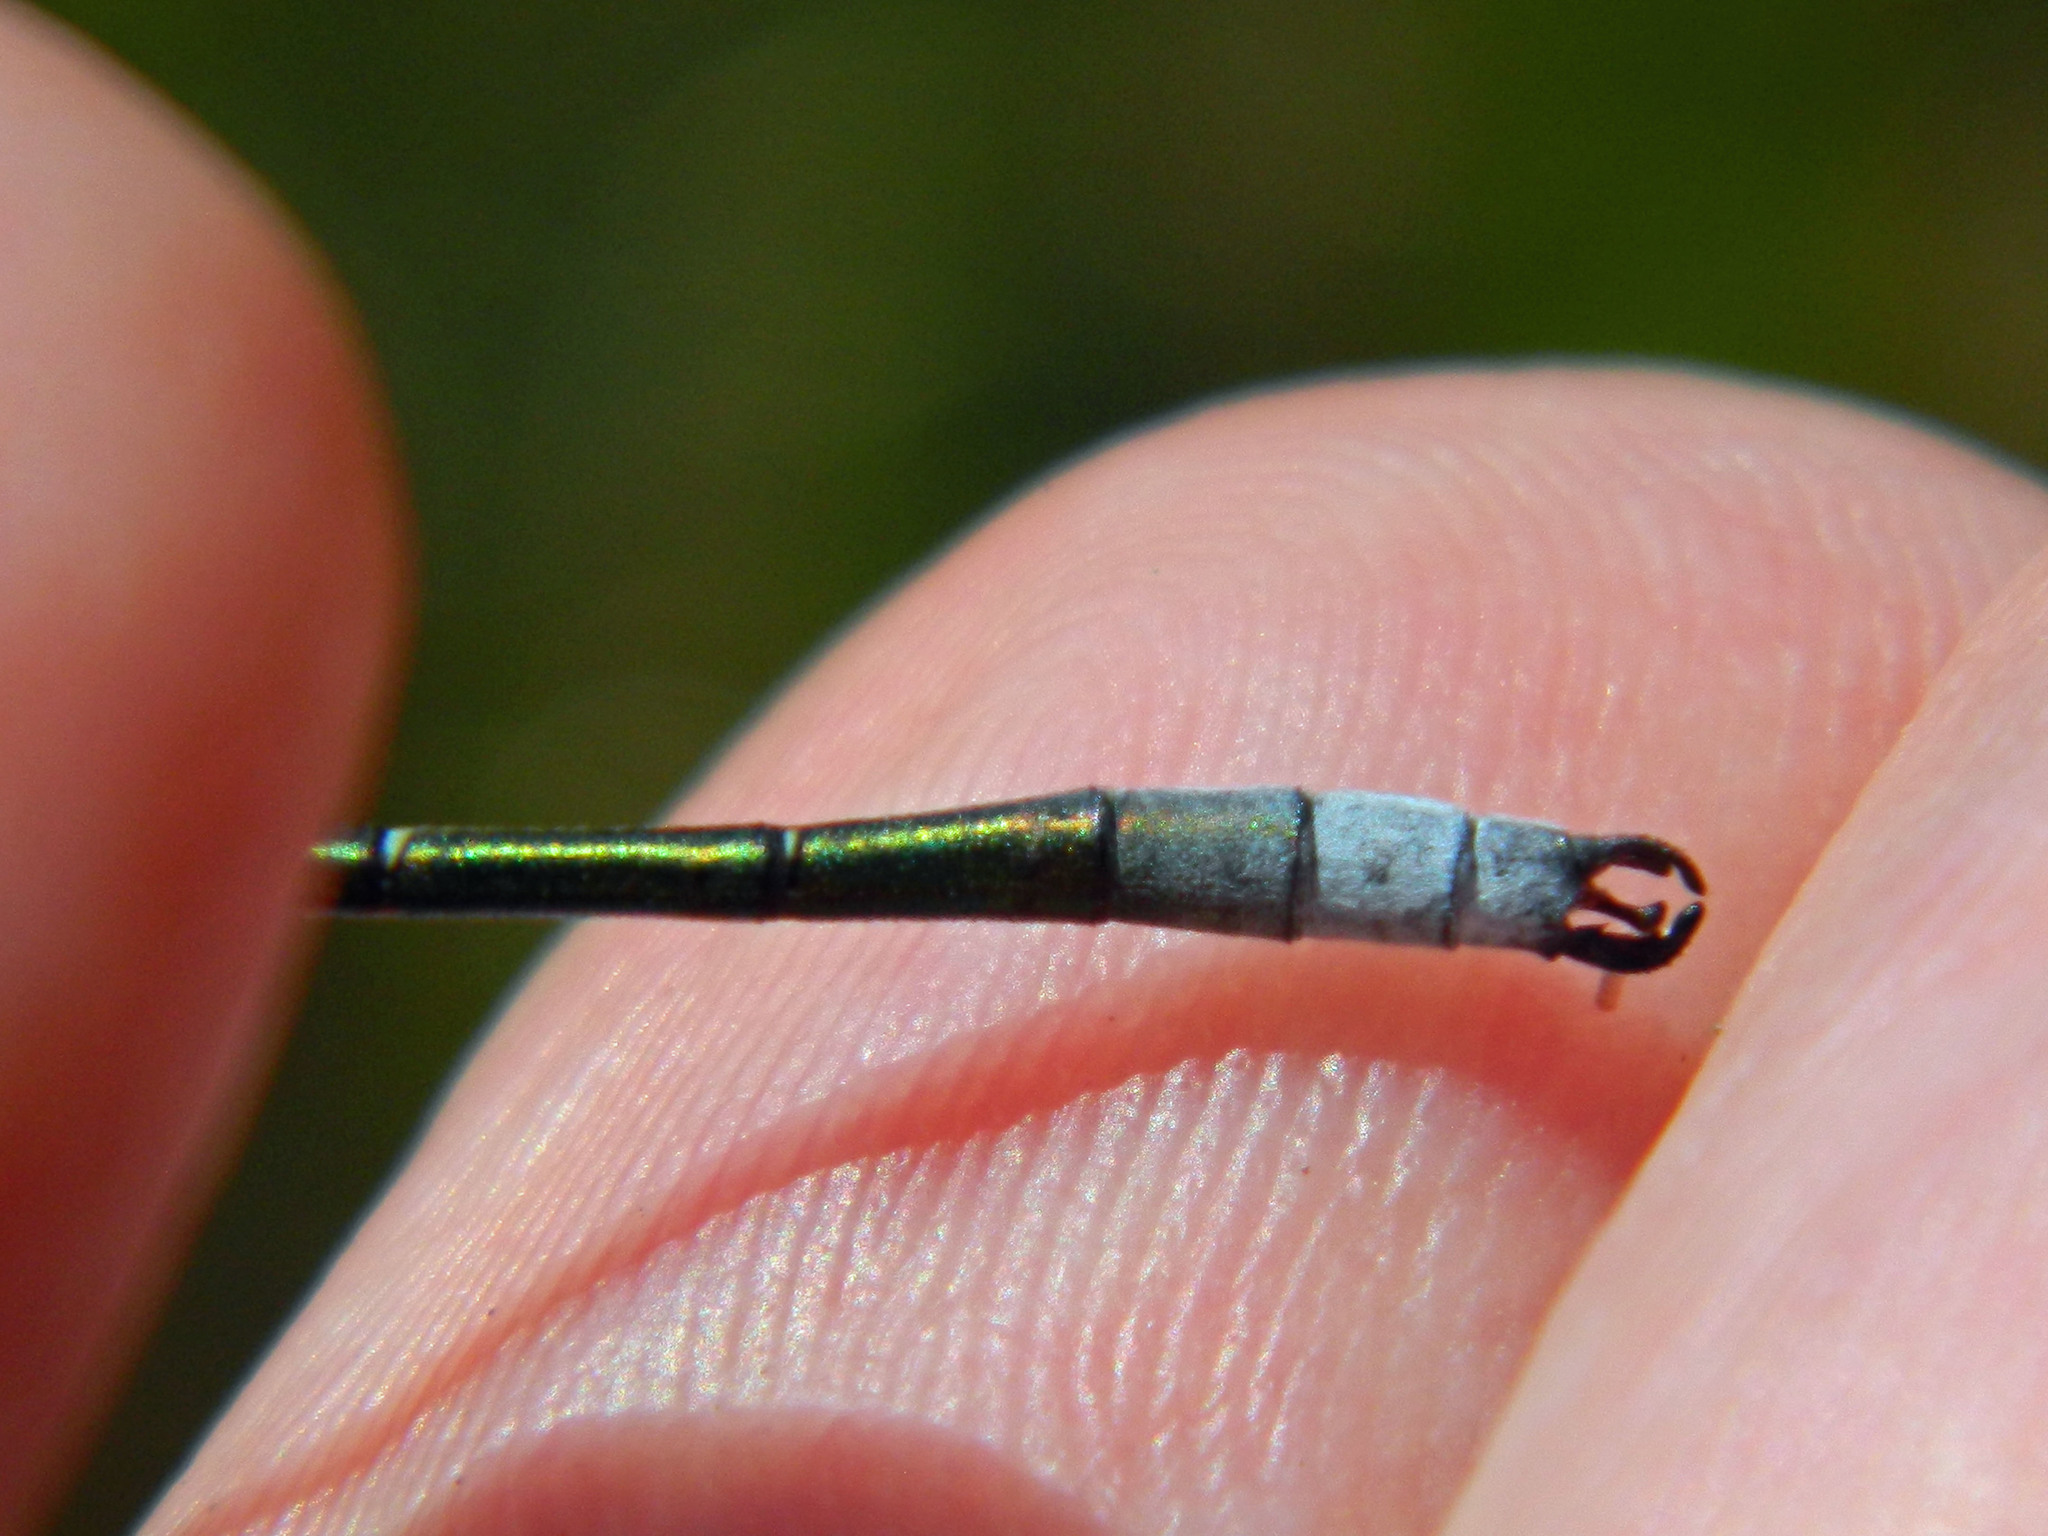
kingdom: Animalia
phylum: Arthropoda
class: Insecta
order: Odonata
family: Lestidae
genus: Lestes
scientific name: Lestes dryas
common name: Scarce emerald damselfly
